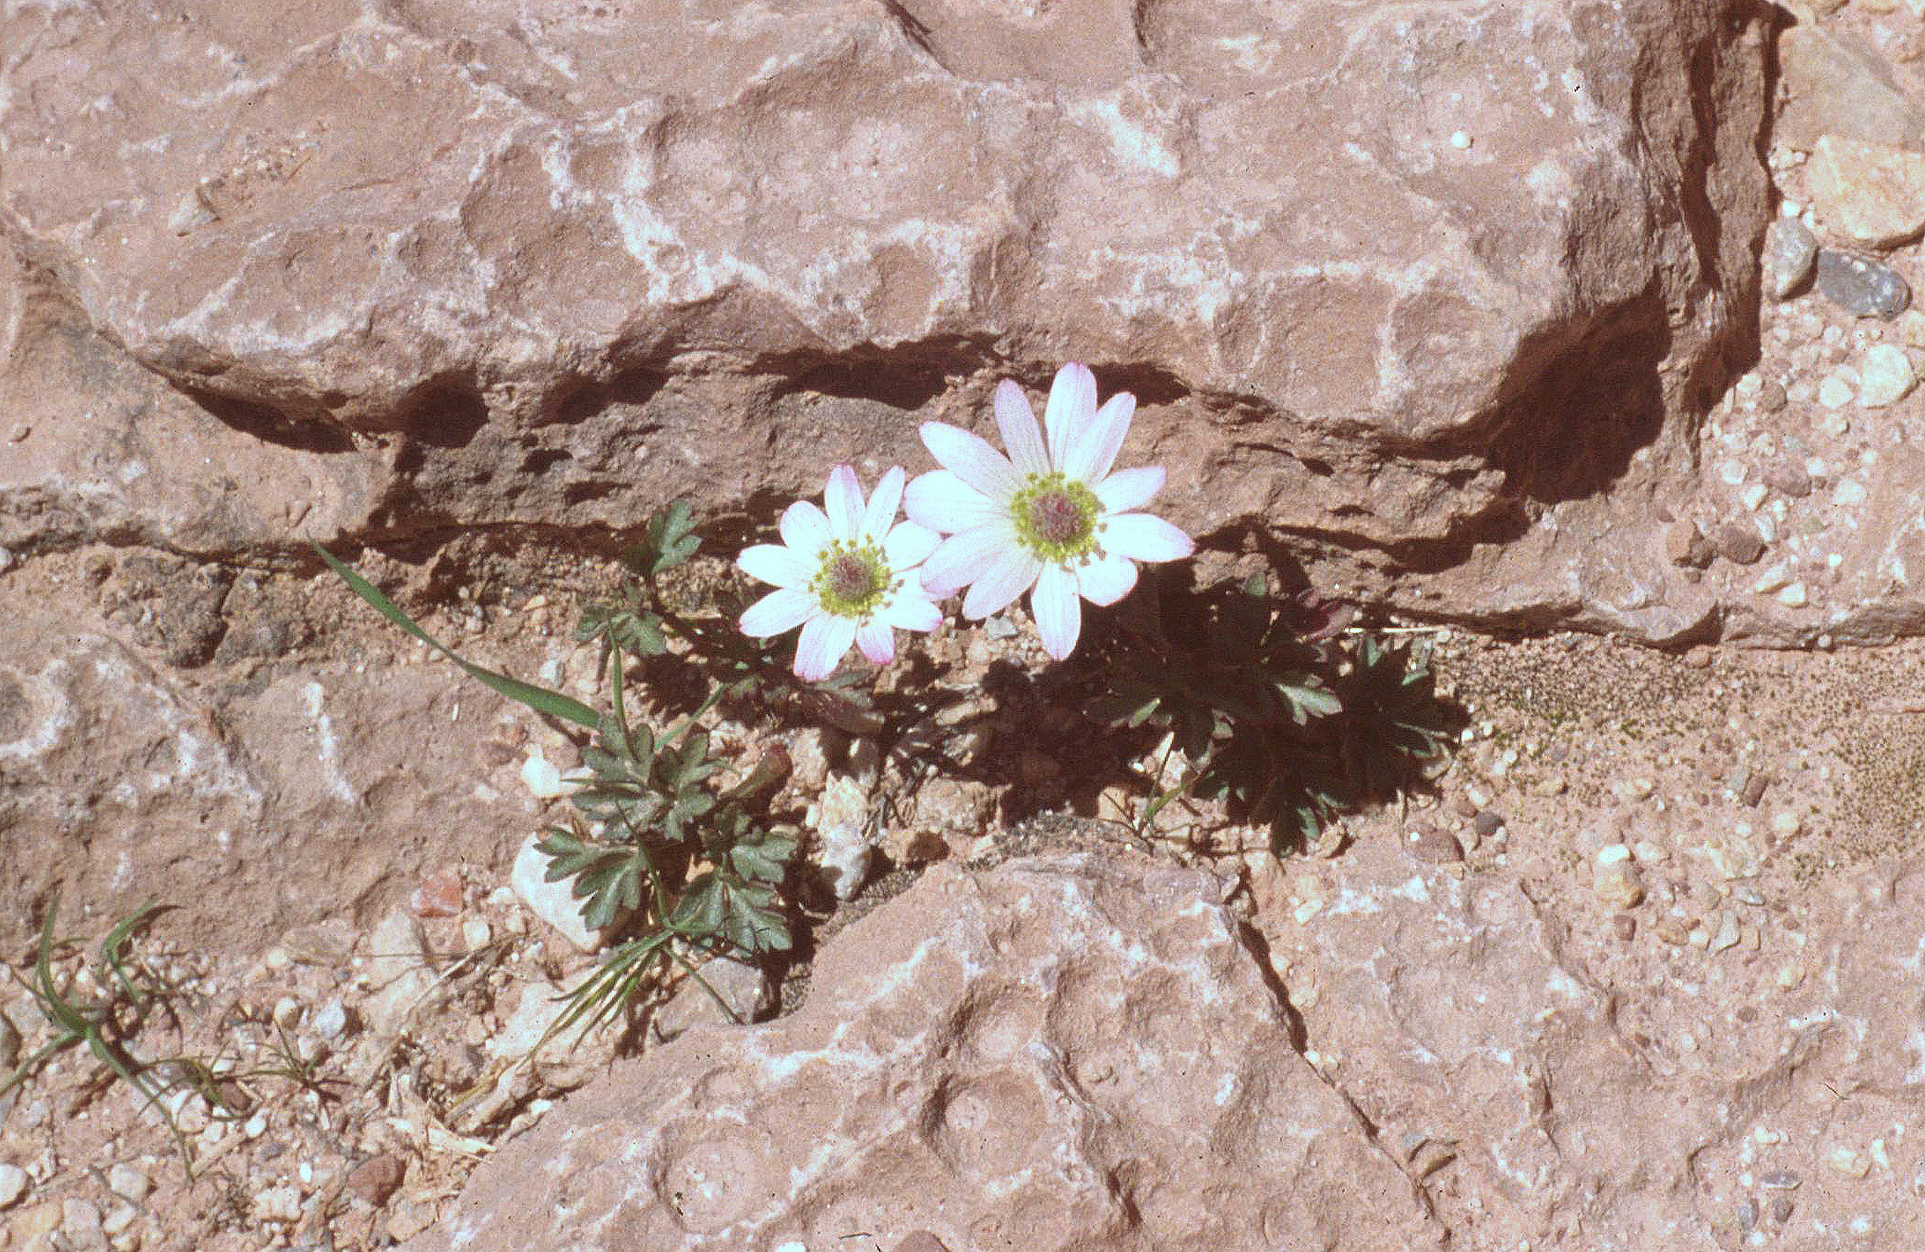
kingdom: Plantae
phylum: Tracheophyta
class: Magnoliopsida
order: Ranunculales
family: Ranunculaceae
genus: Anemone
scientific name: Anemone tuberosa
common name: Desert anemone
